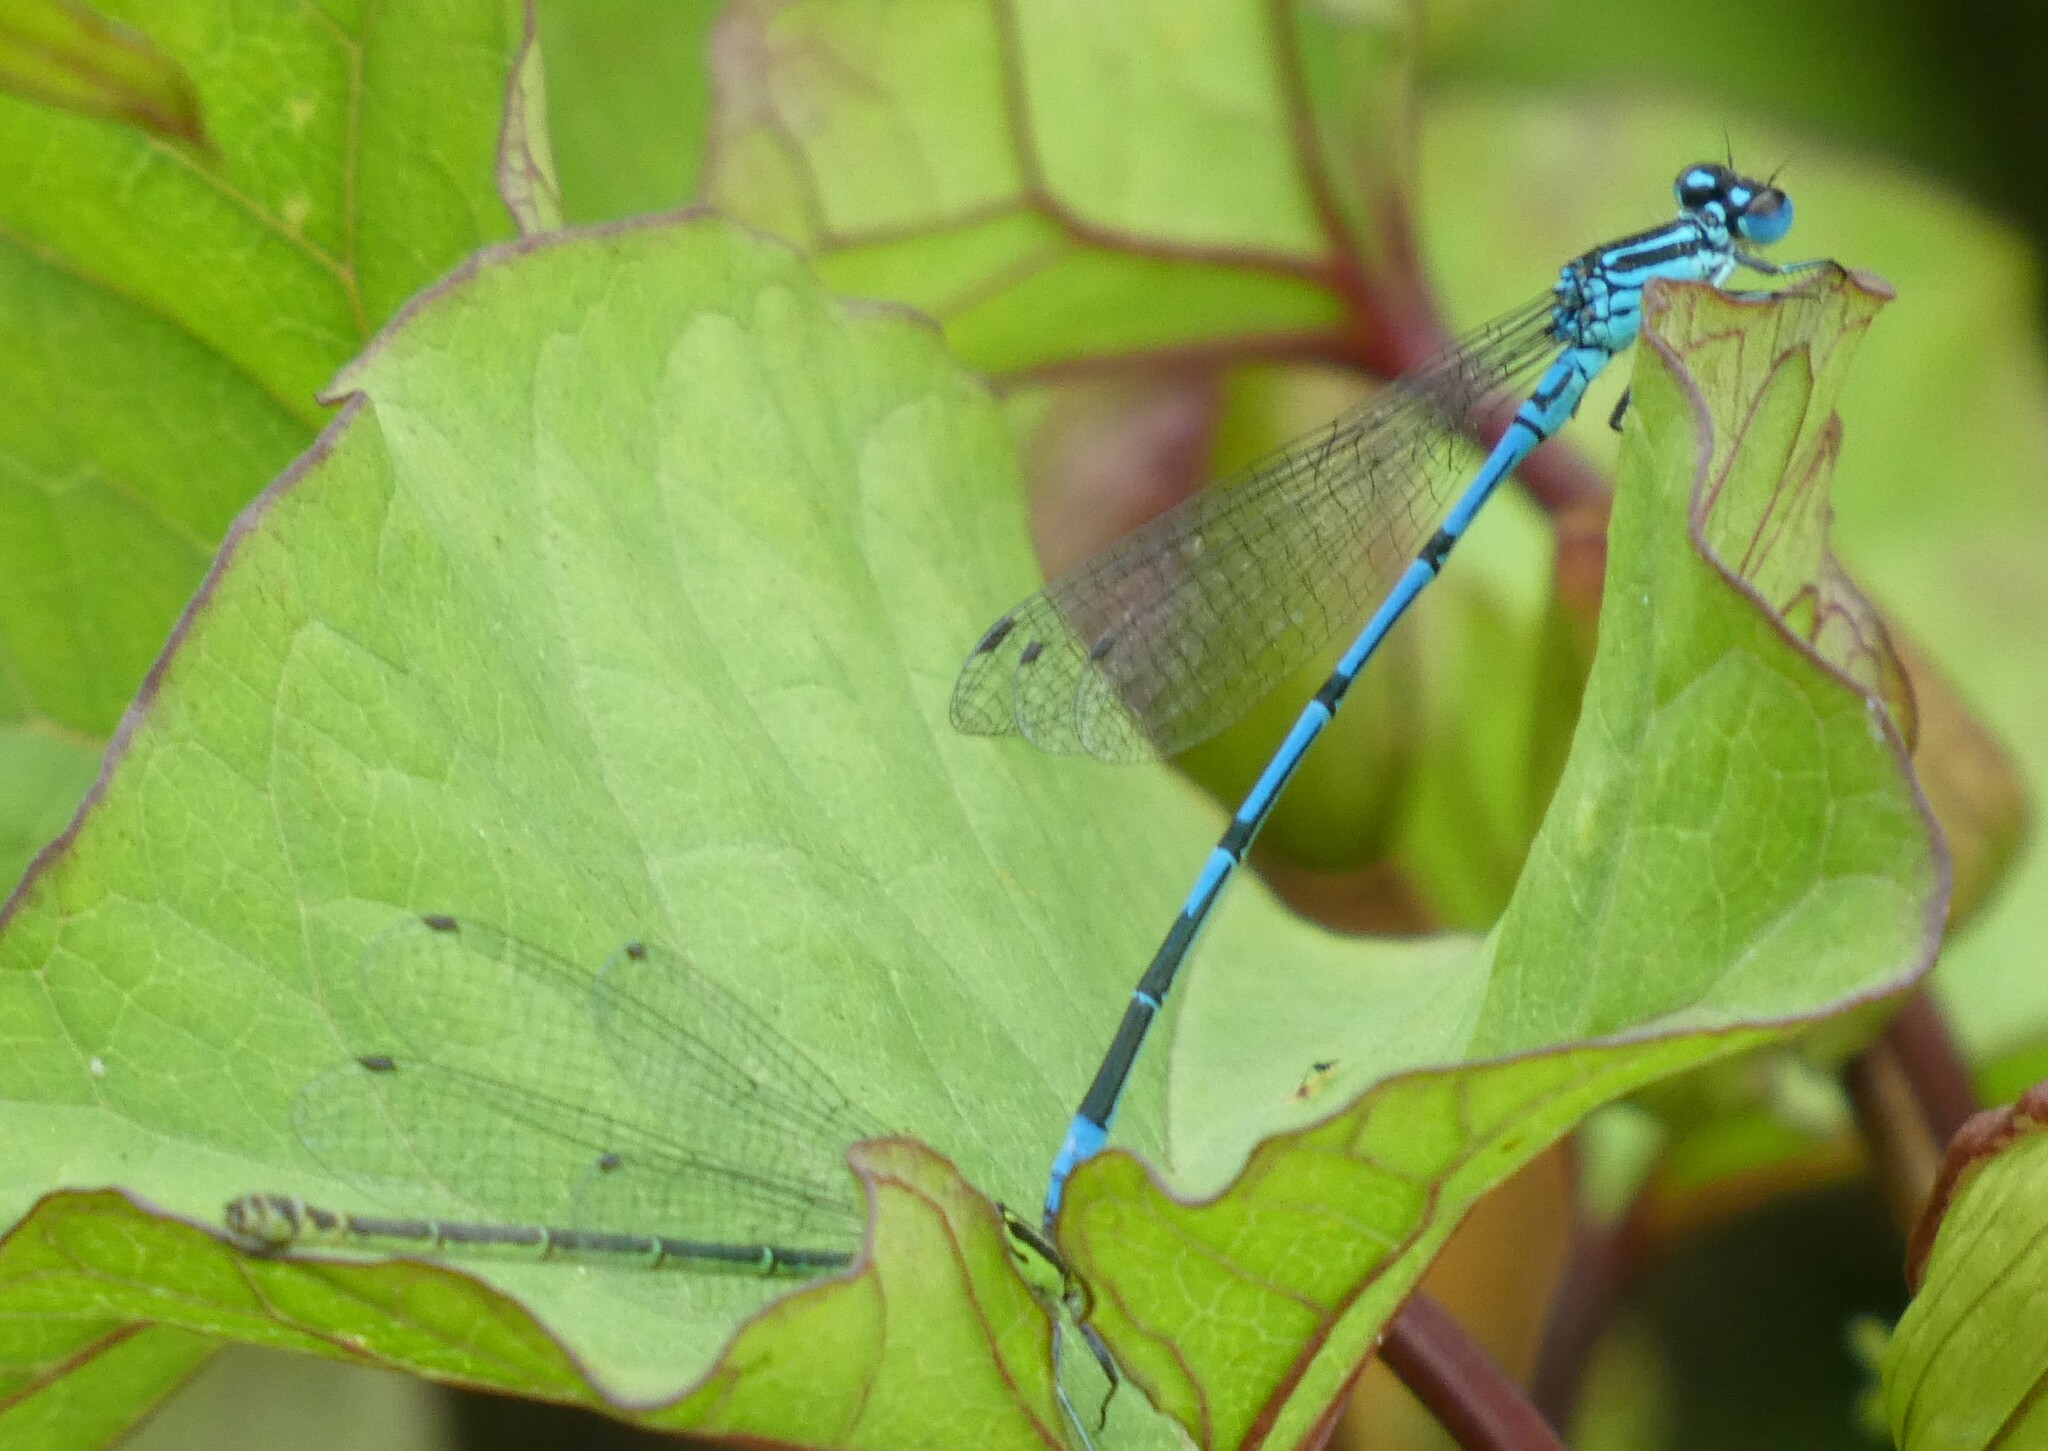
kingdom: Animalia
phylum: Arthropoda
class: Insecta
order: Odonata
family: Coenagrionidae
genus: Coenagrion
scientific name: Coenagrion puella
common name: Azure damselfly
